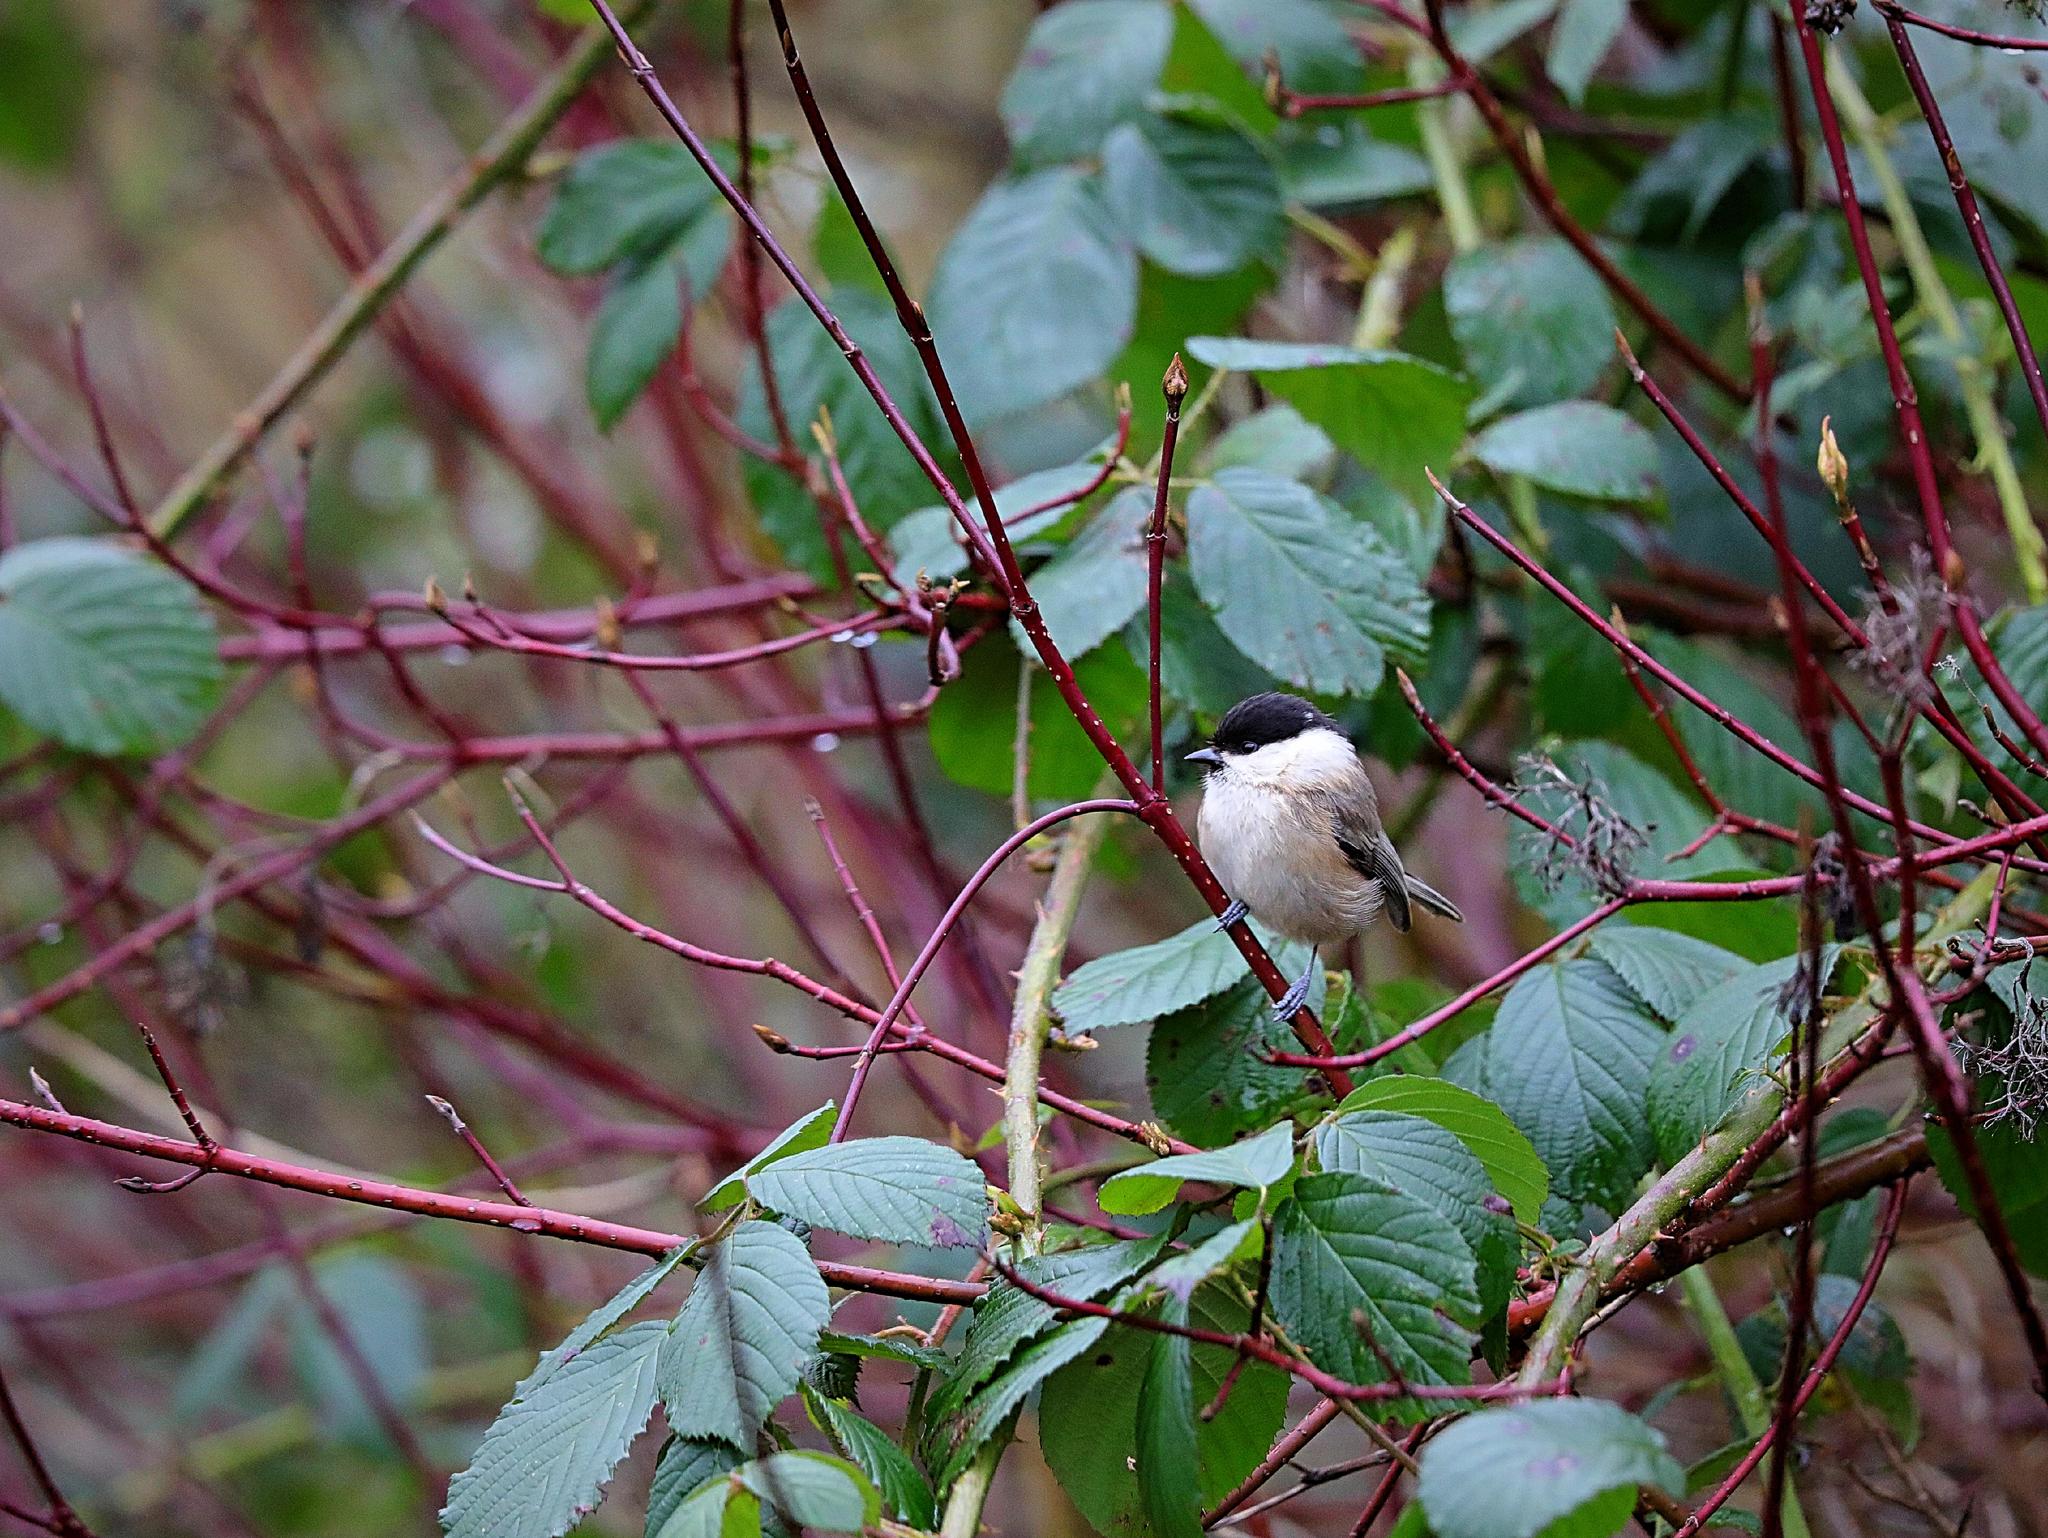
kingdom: Animalia
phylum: Chordata
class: Aves
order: Passeriformes
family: Paridae
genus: Poecile
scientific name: Poecile montanus
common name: Willow tit
